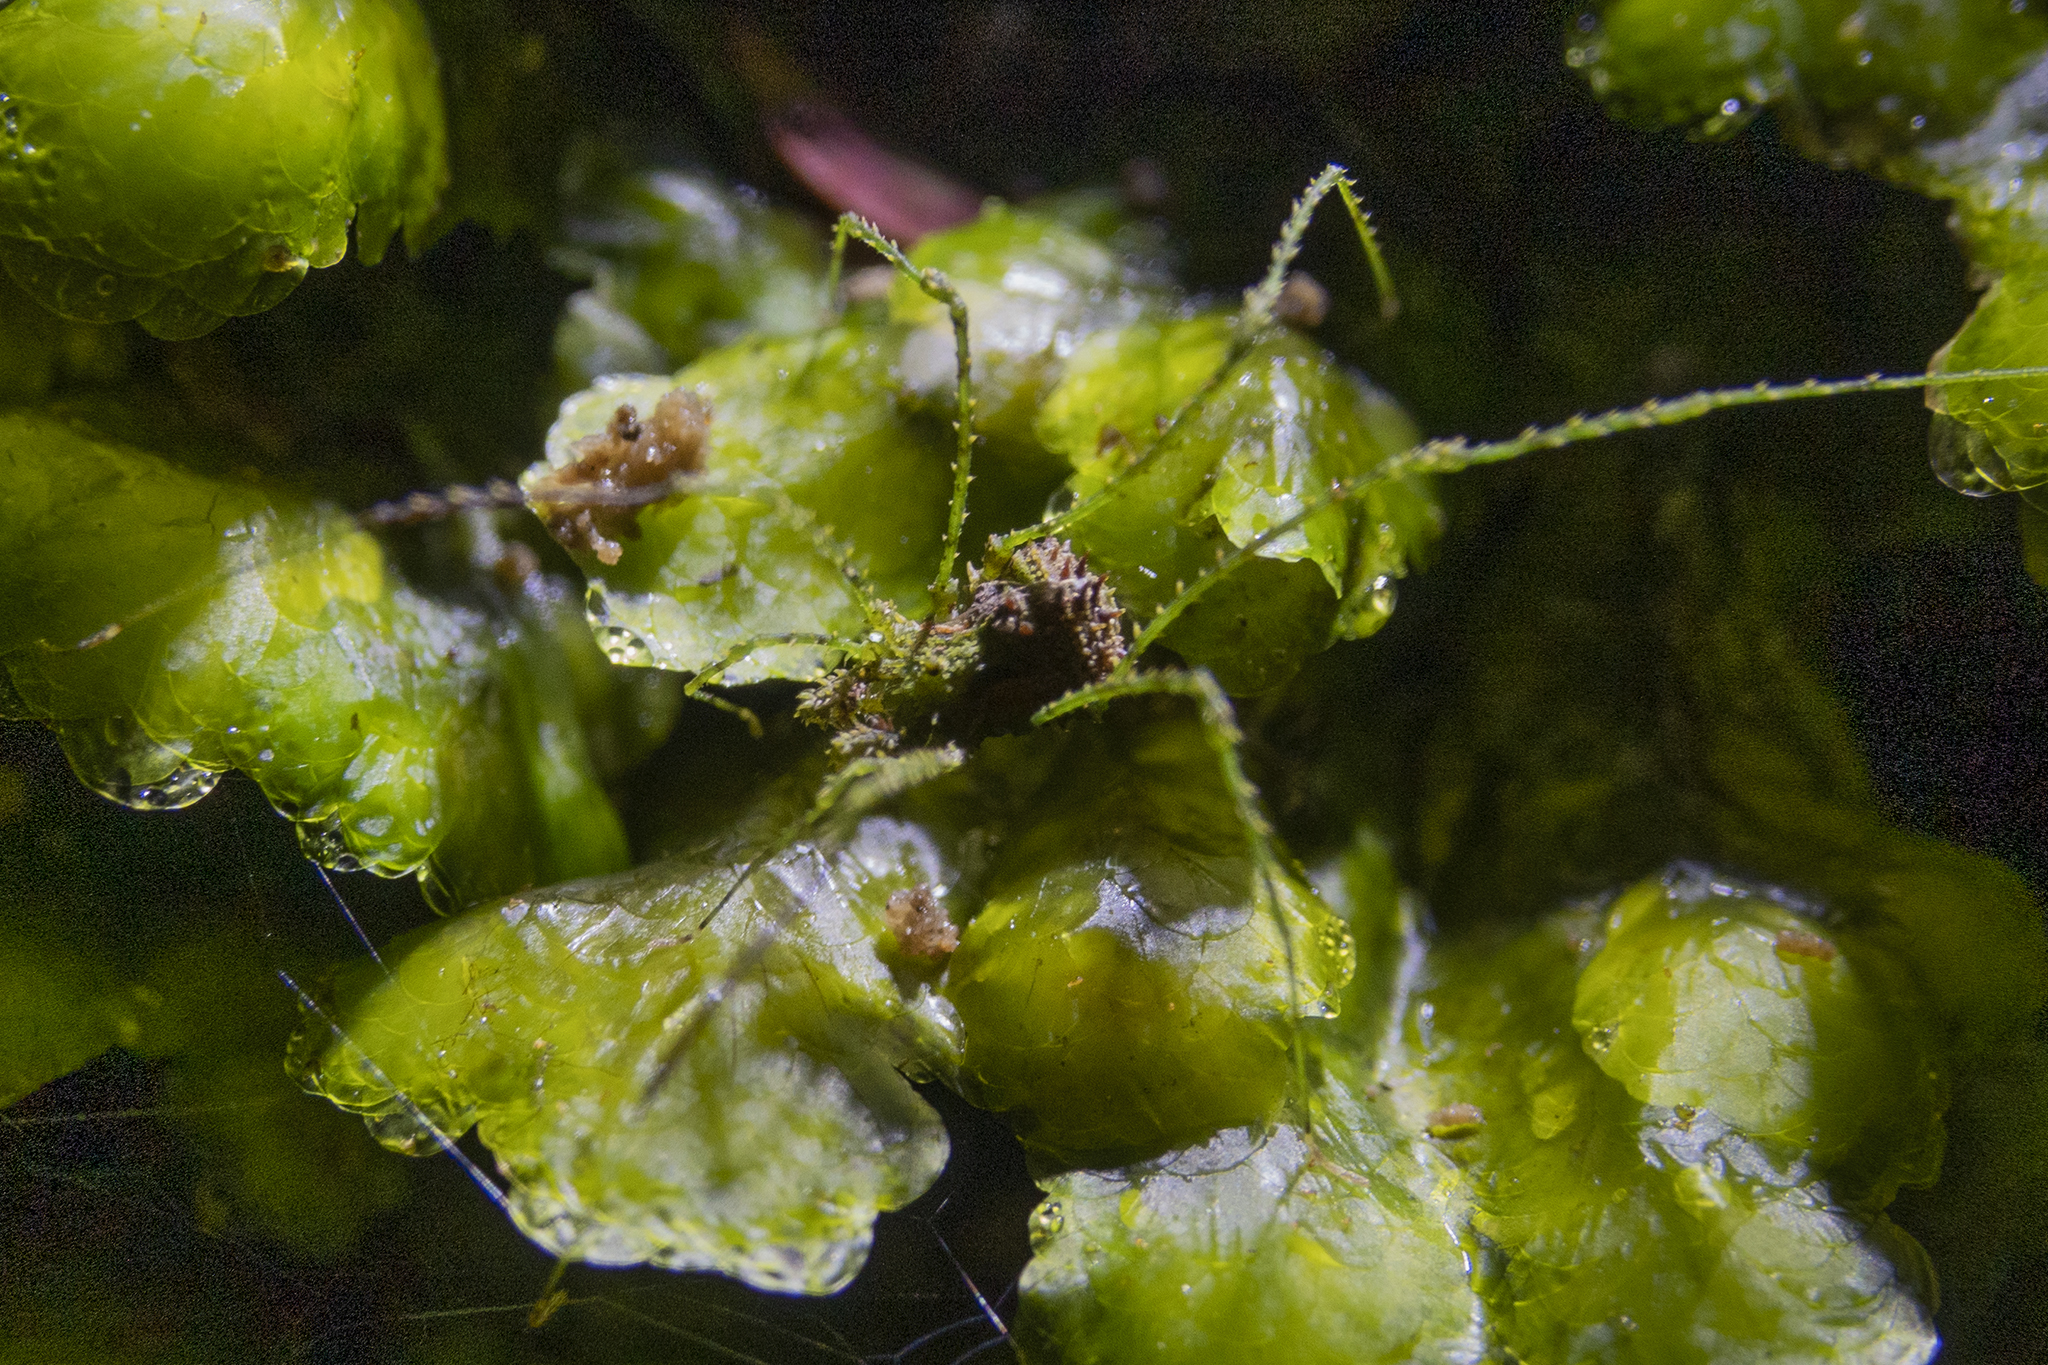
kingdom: Animalia
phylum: Arthropoda
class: Arachnida
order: Opiliones
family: Triaenonychidae
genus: Algidia
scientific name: Algidia viridata
